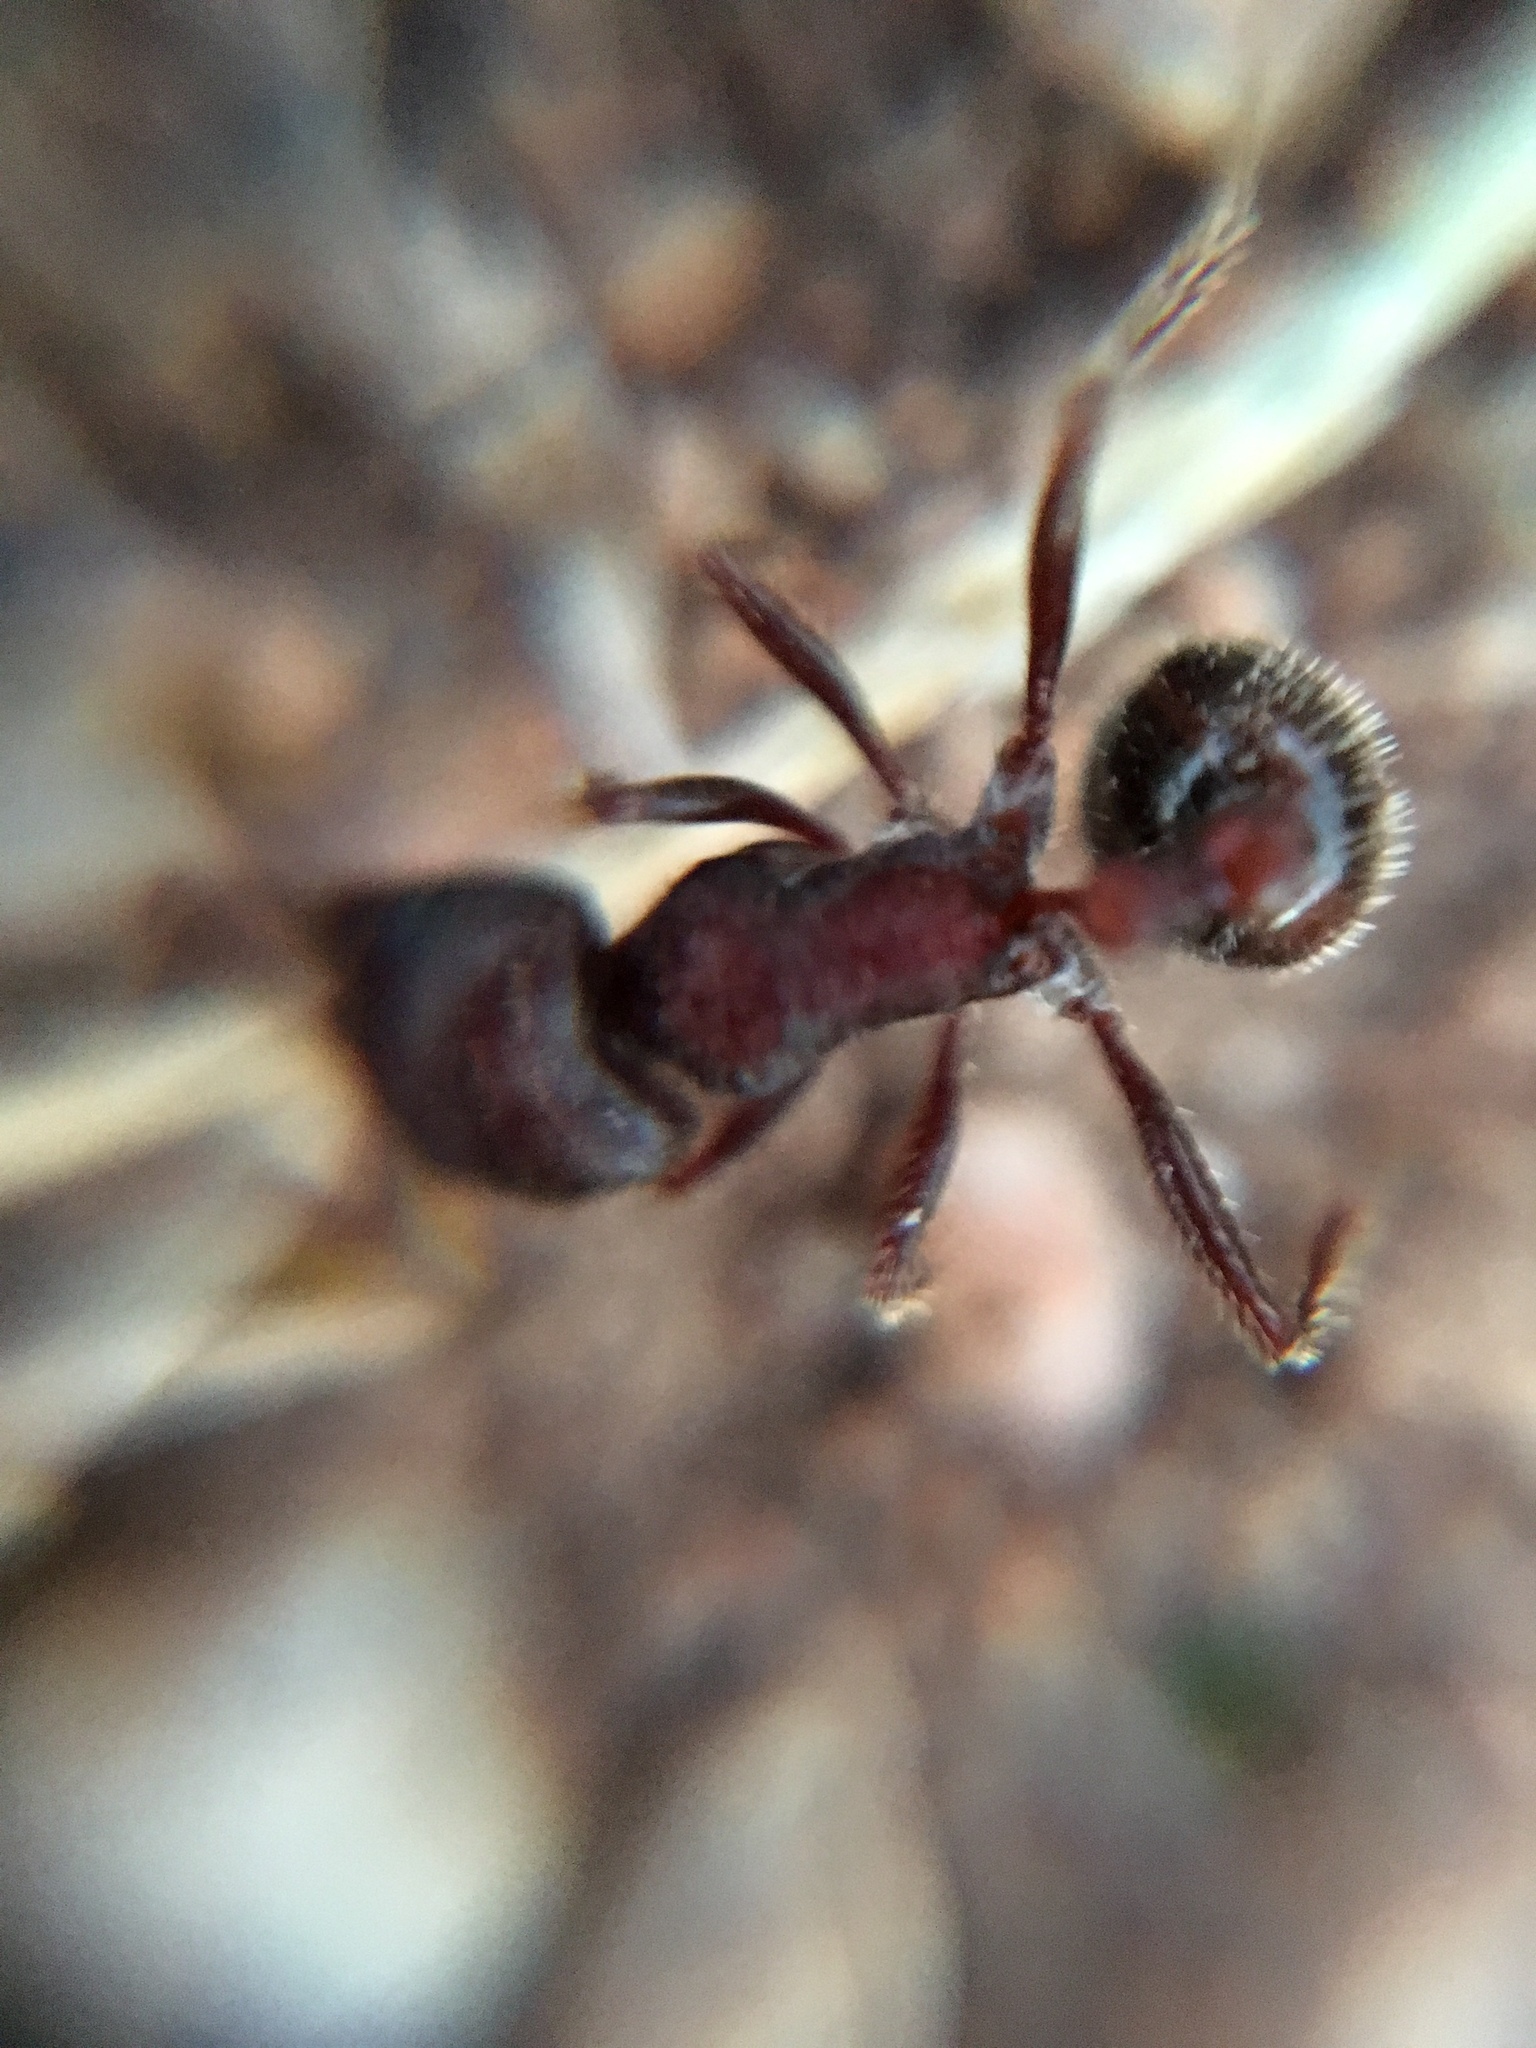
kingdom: Animalia
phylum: Arthropoda
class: Insecta
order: Hymenoptera
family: Formicidae
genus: Pogonomyrmex
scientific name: Pogonomyrmex rugosus
